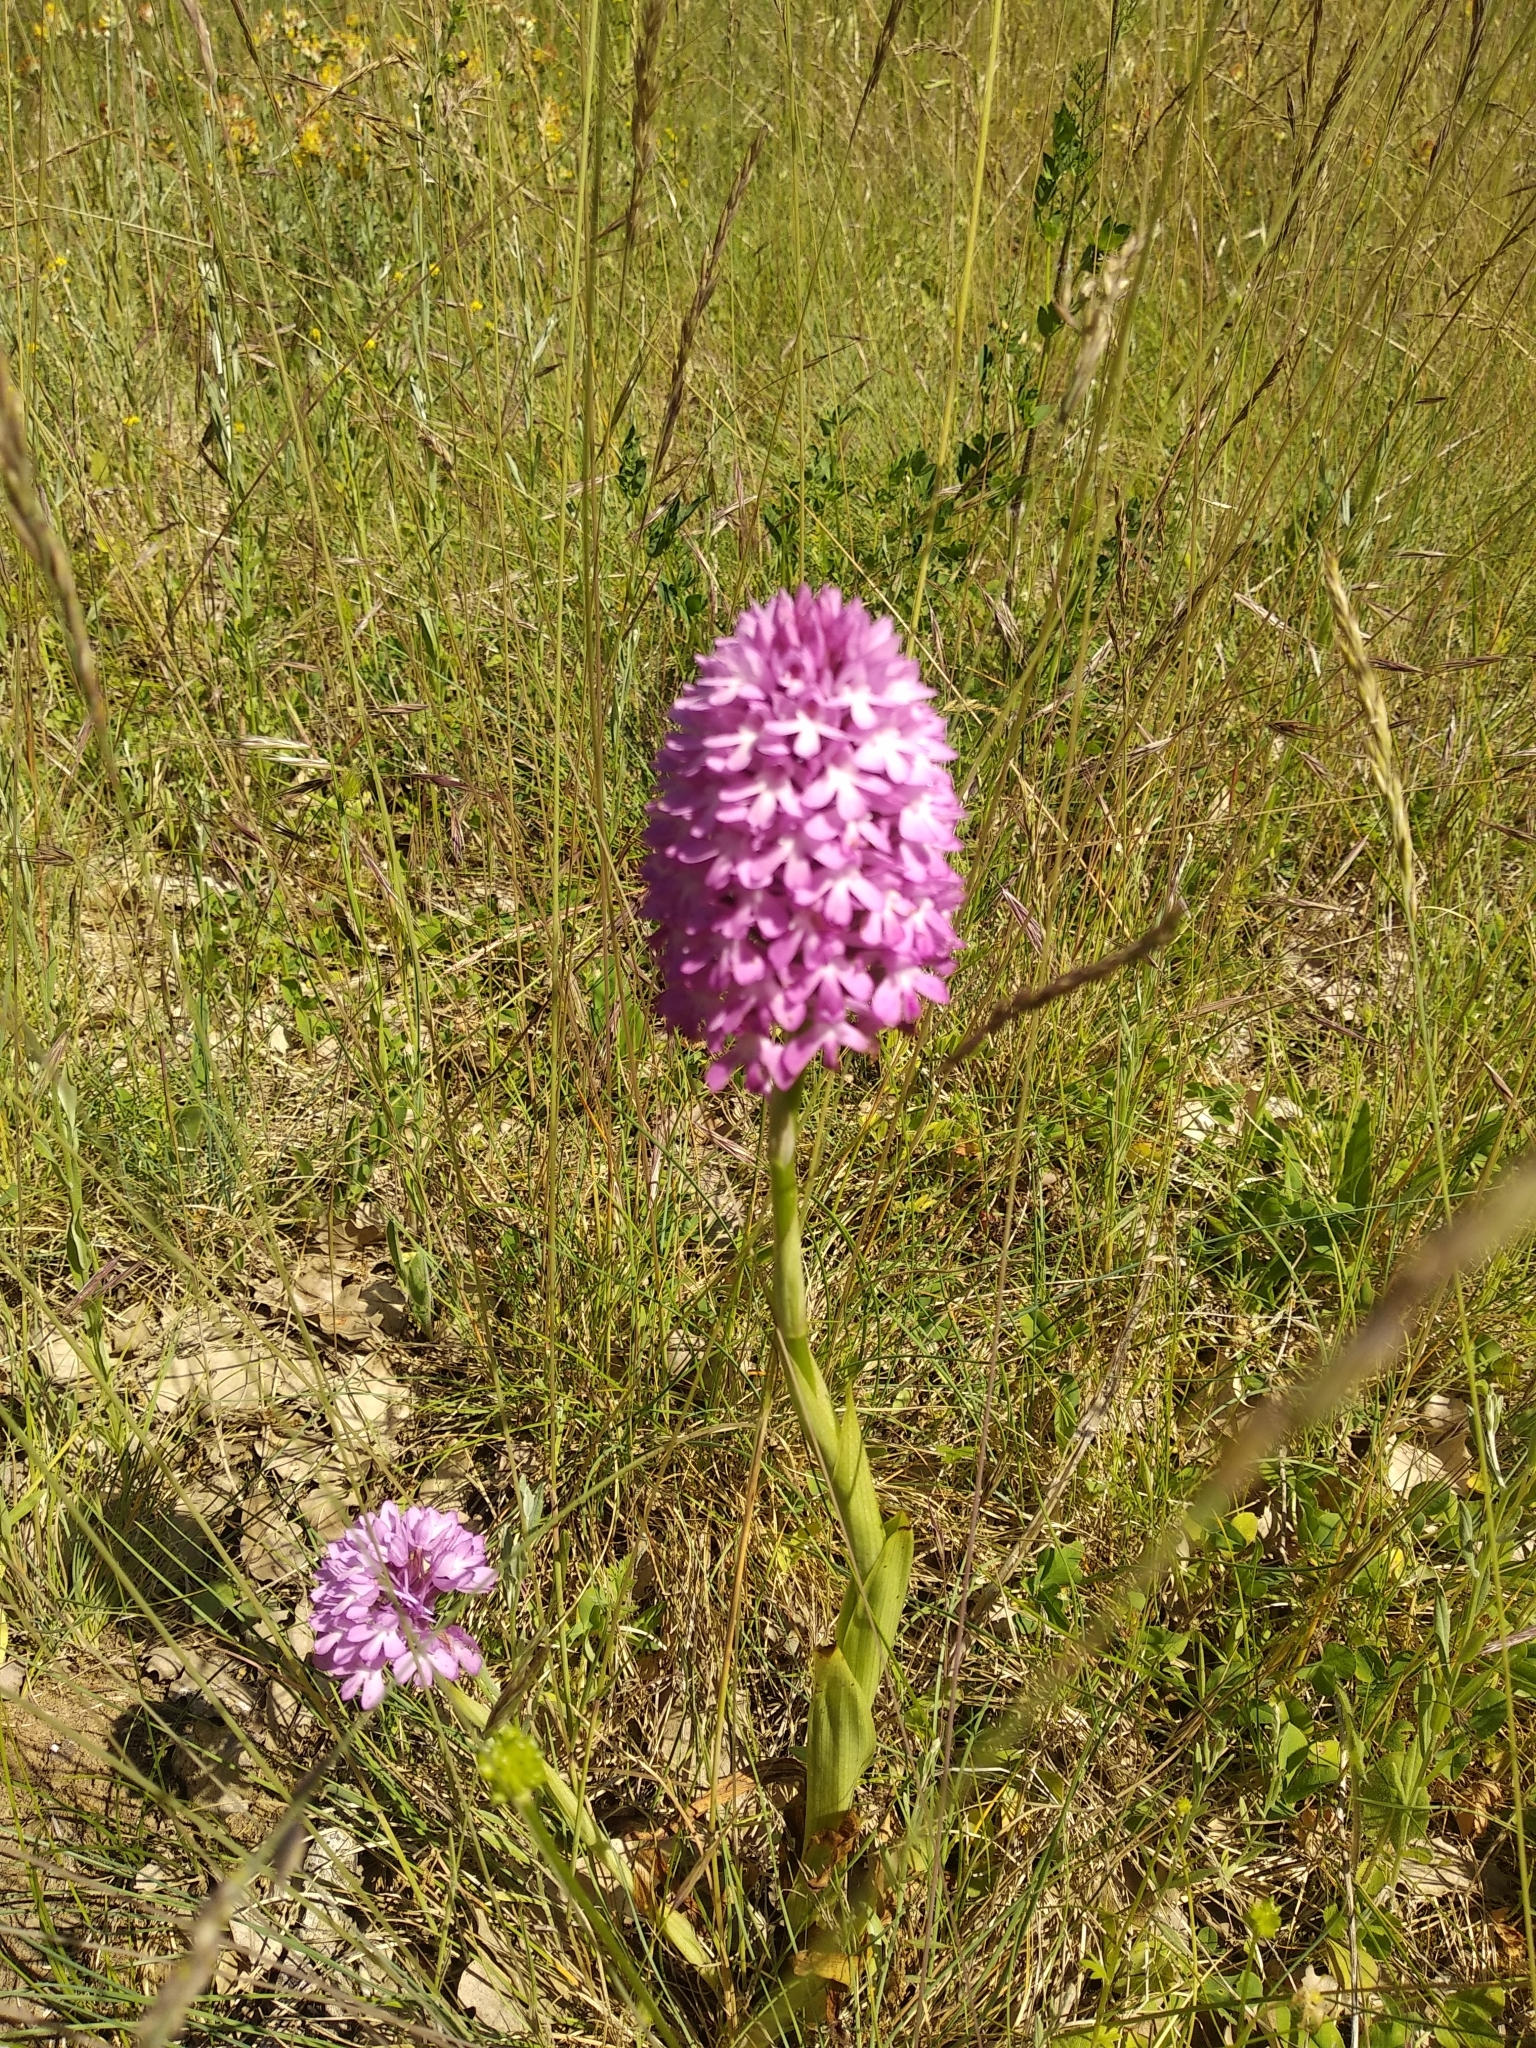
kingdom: Plantae
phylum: Tracheophyta
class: Liliopsida
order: Asparagales
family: Orchidaceae
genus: Anacamptis
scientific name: Anacamptis pyramidalis
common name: Pyramidal orchid
